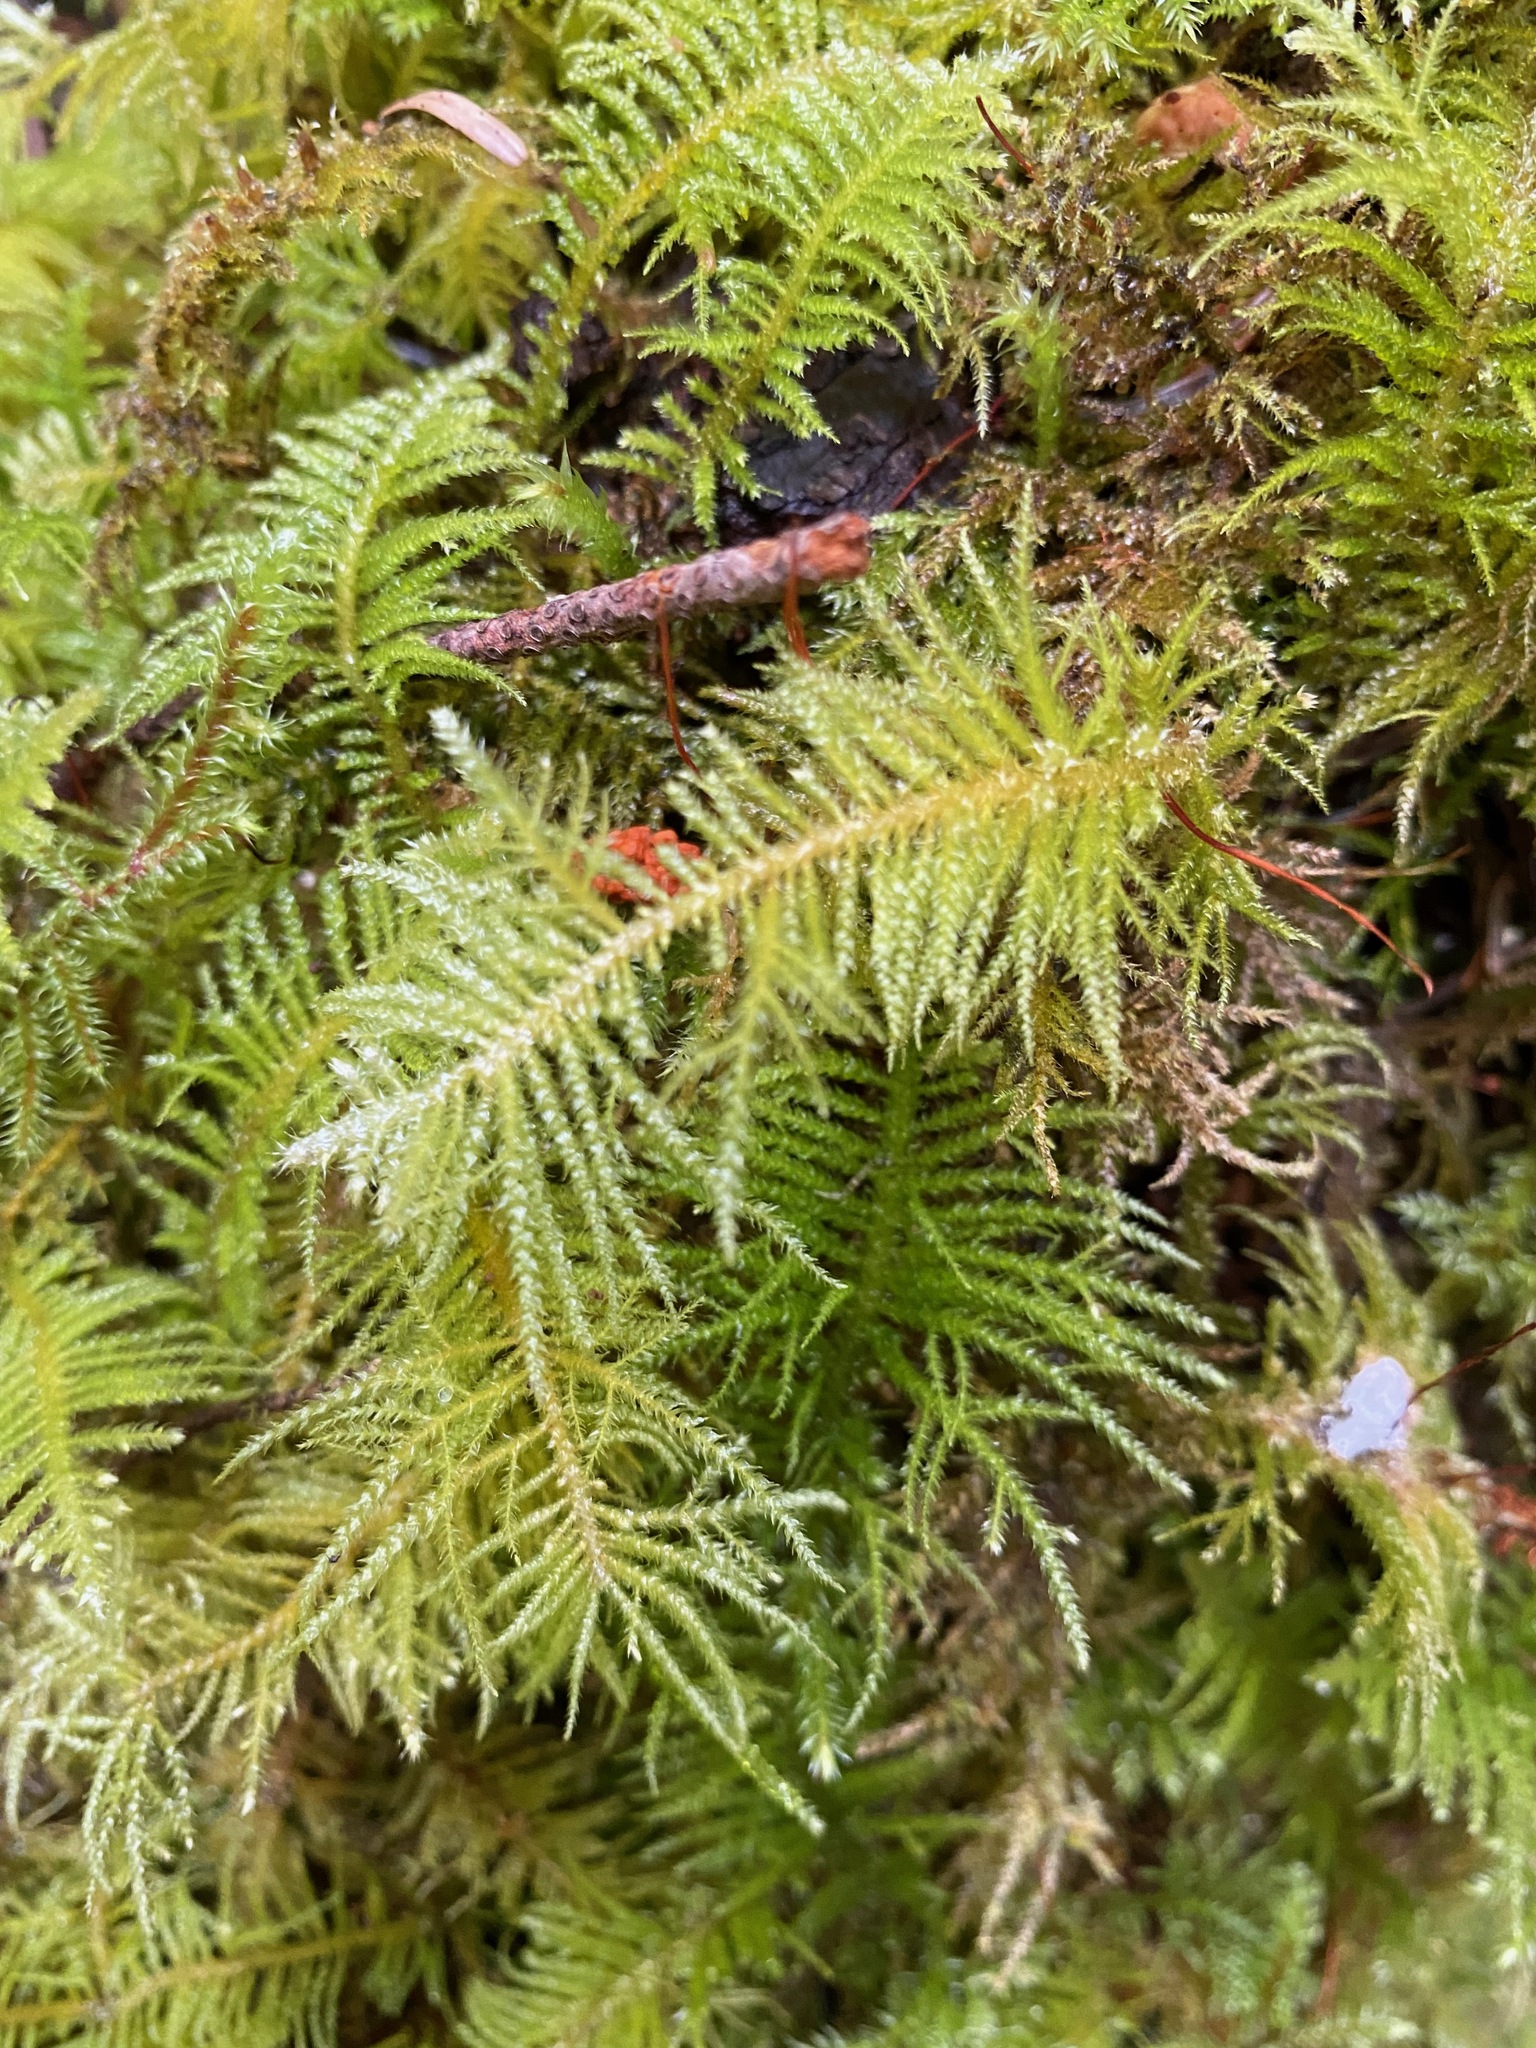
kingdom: Plantae
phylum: Bryophyta
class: Bryopsida
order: Hypnales
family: Brachytheciaceae
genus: Kindbergia
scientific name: Kindbergia oregana
